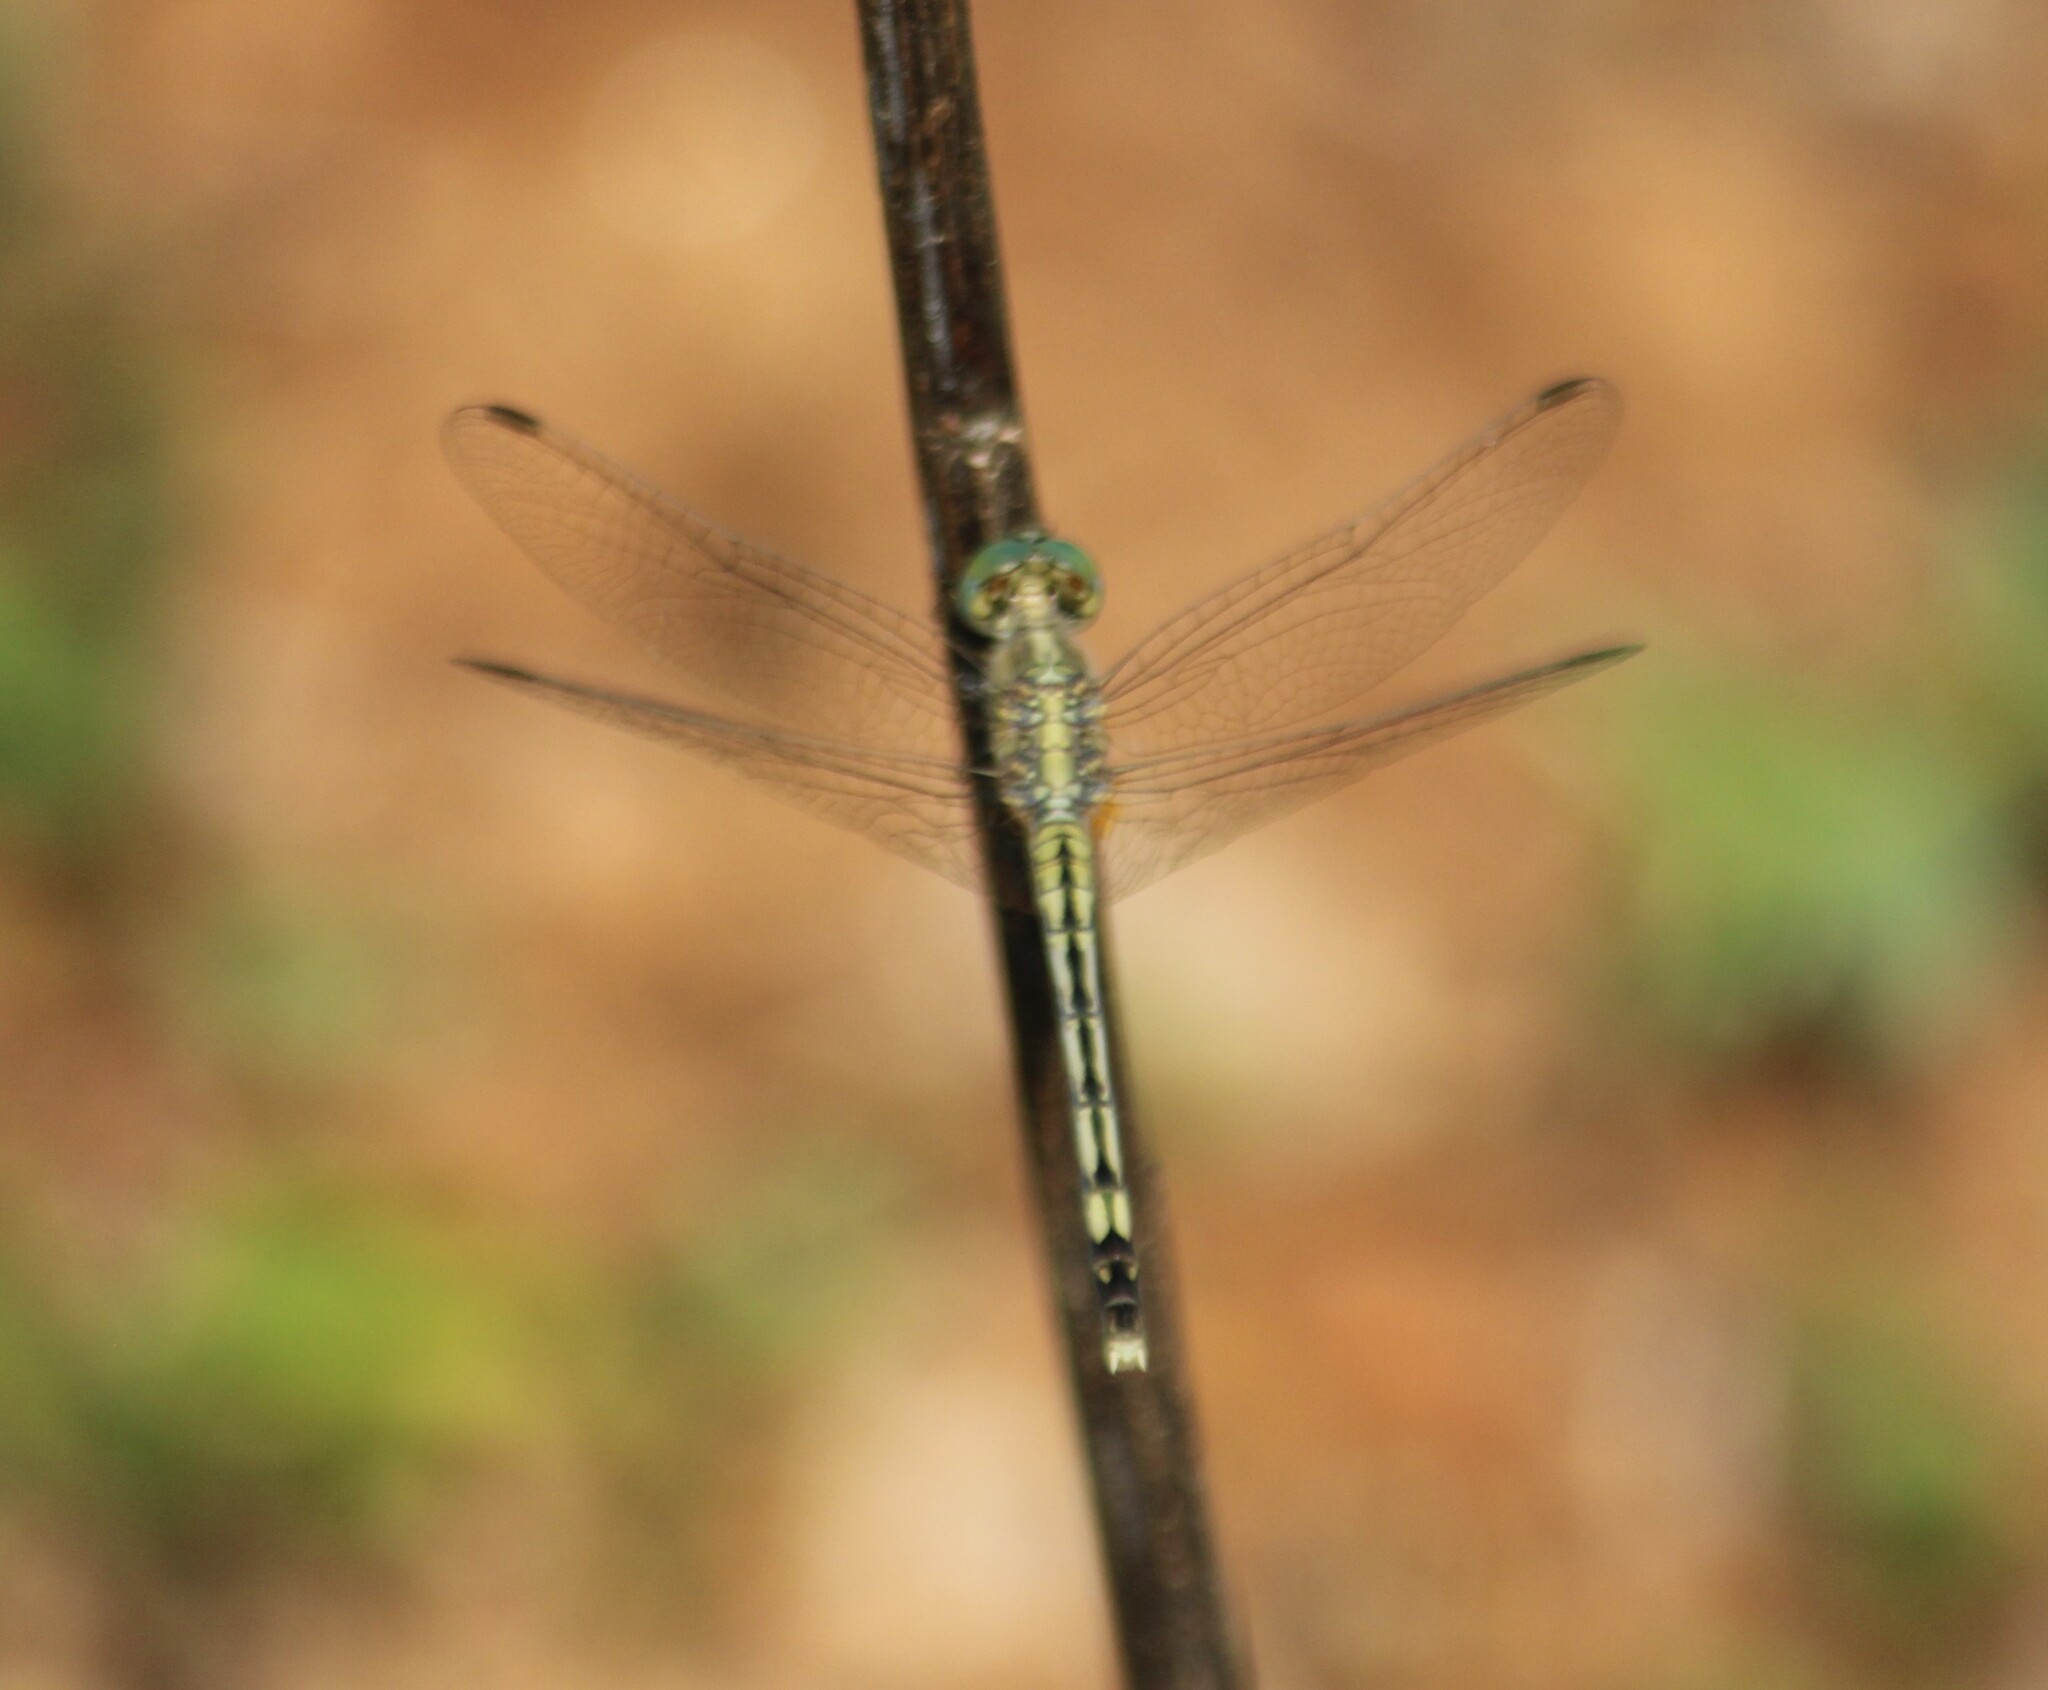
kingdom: Animalia
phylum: Arthropoda
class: Insecta
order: Odonata
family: Libellulidae
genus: Diplacodes
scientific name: Diplacodes trivialis
